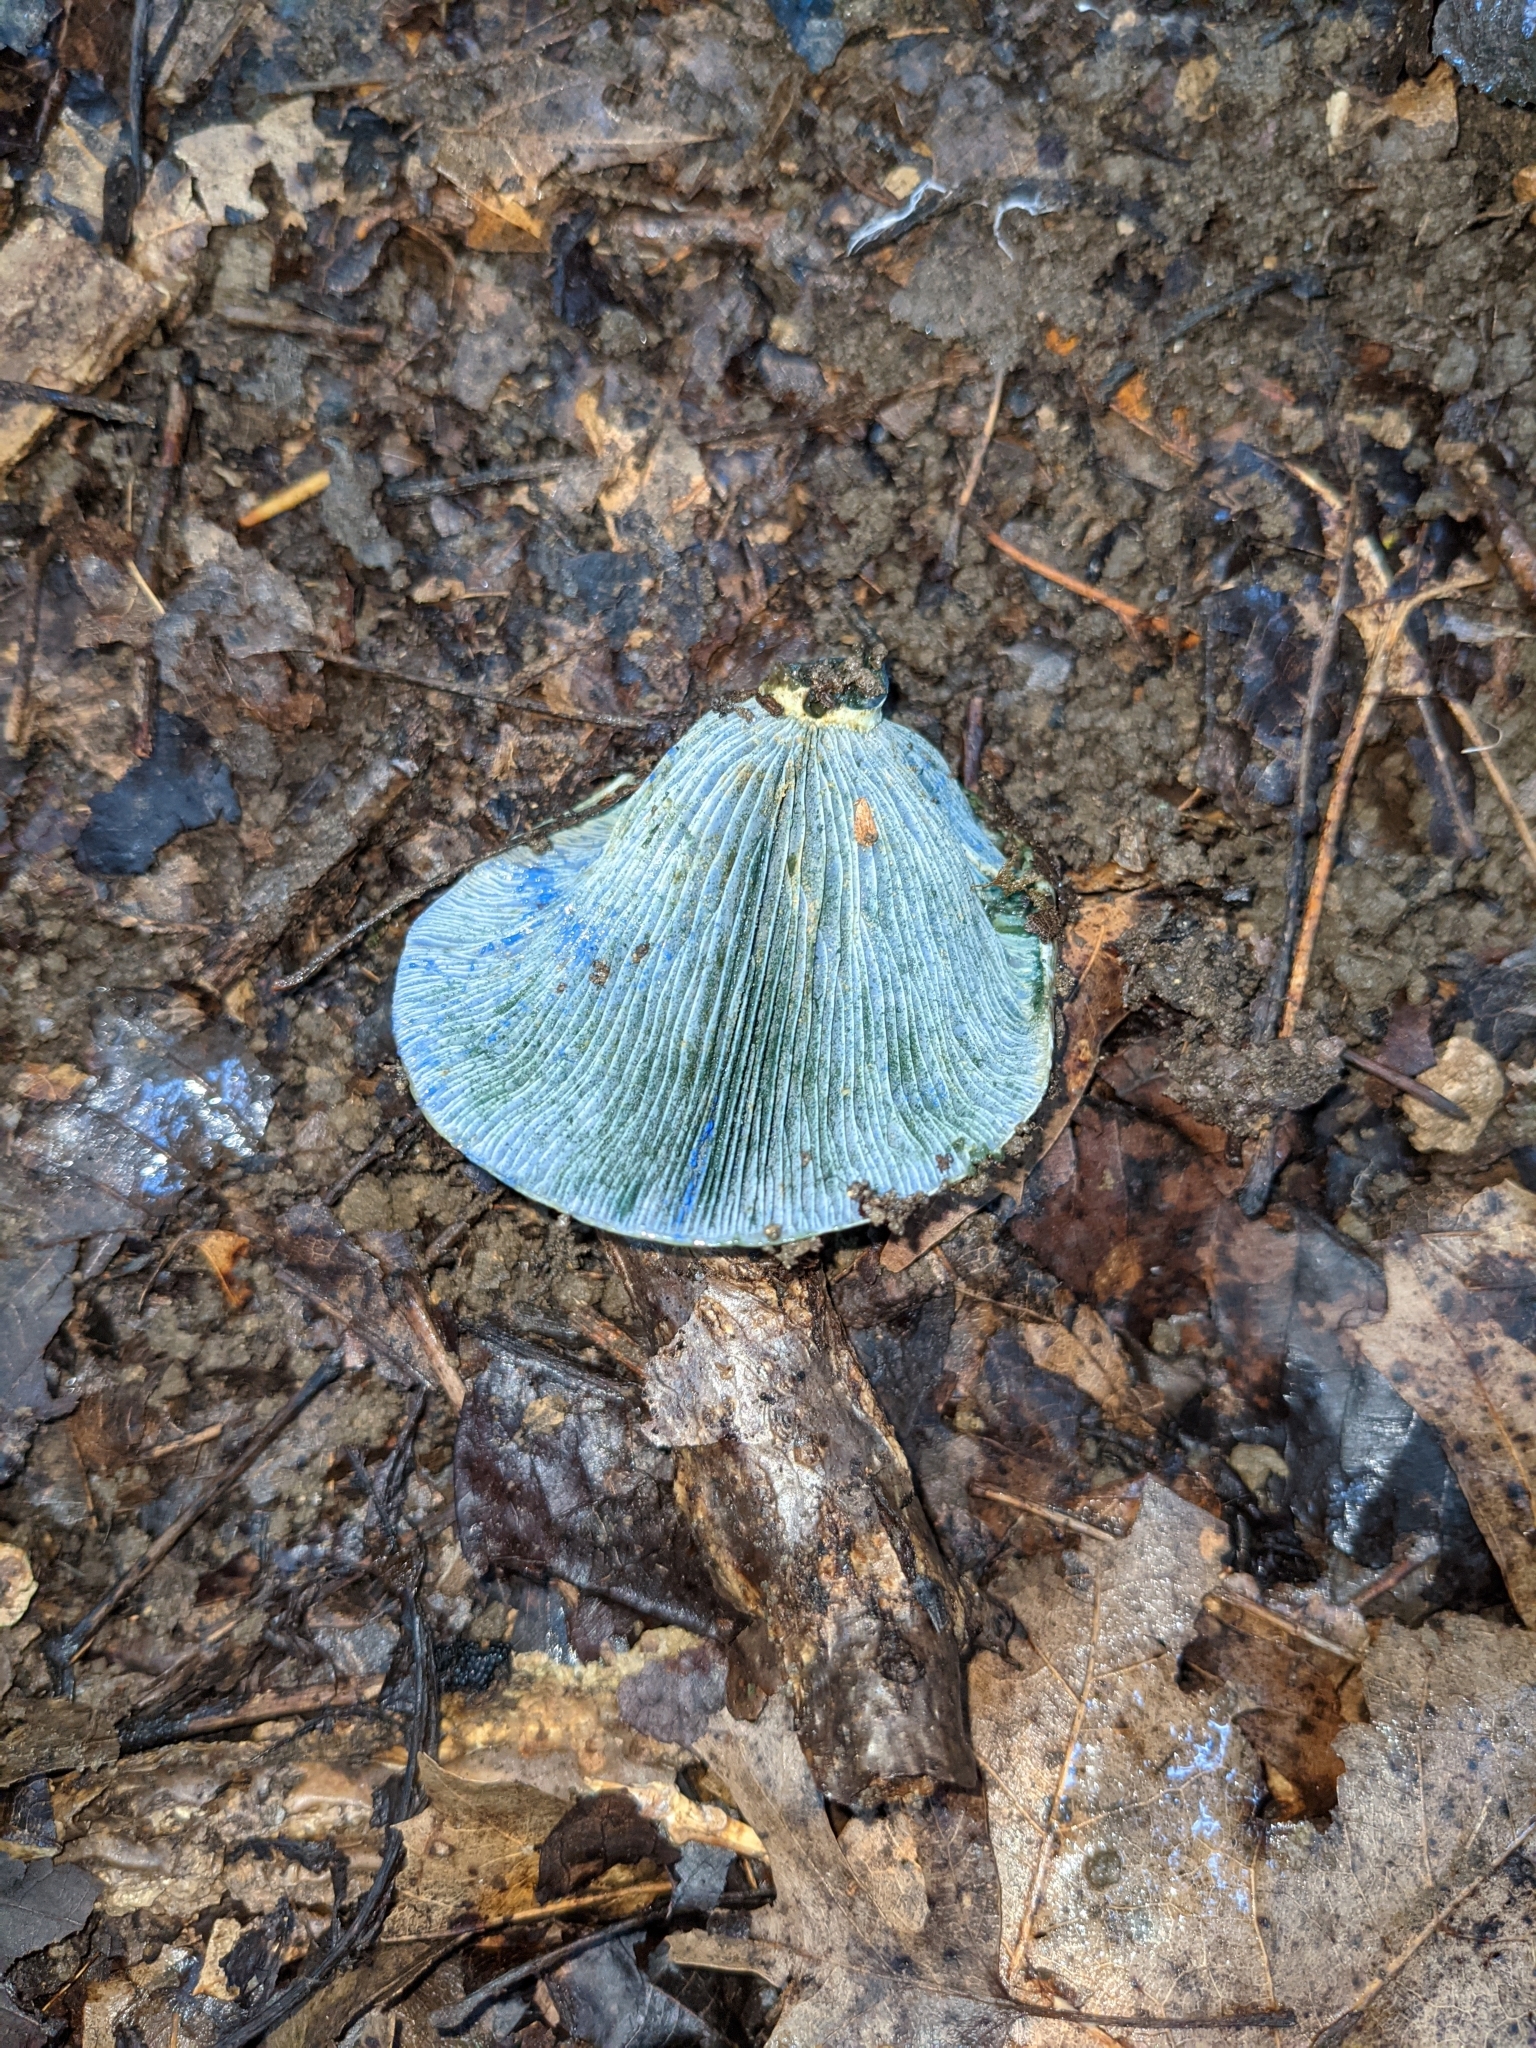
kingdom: Fungi
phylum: Basidiomycota
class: Agaricomycetes
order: Russulales
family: Russulaceae
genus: Lactarius
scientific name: Lactarius indigo
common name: Indigo milk cap
